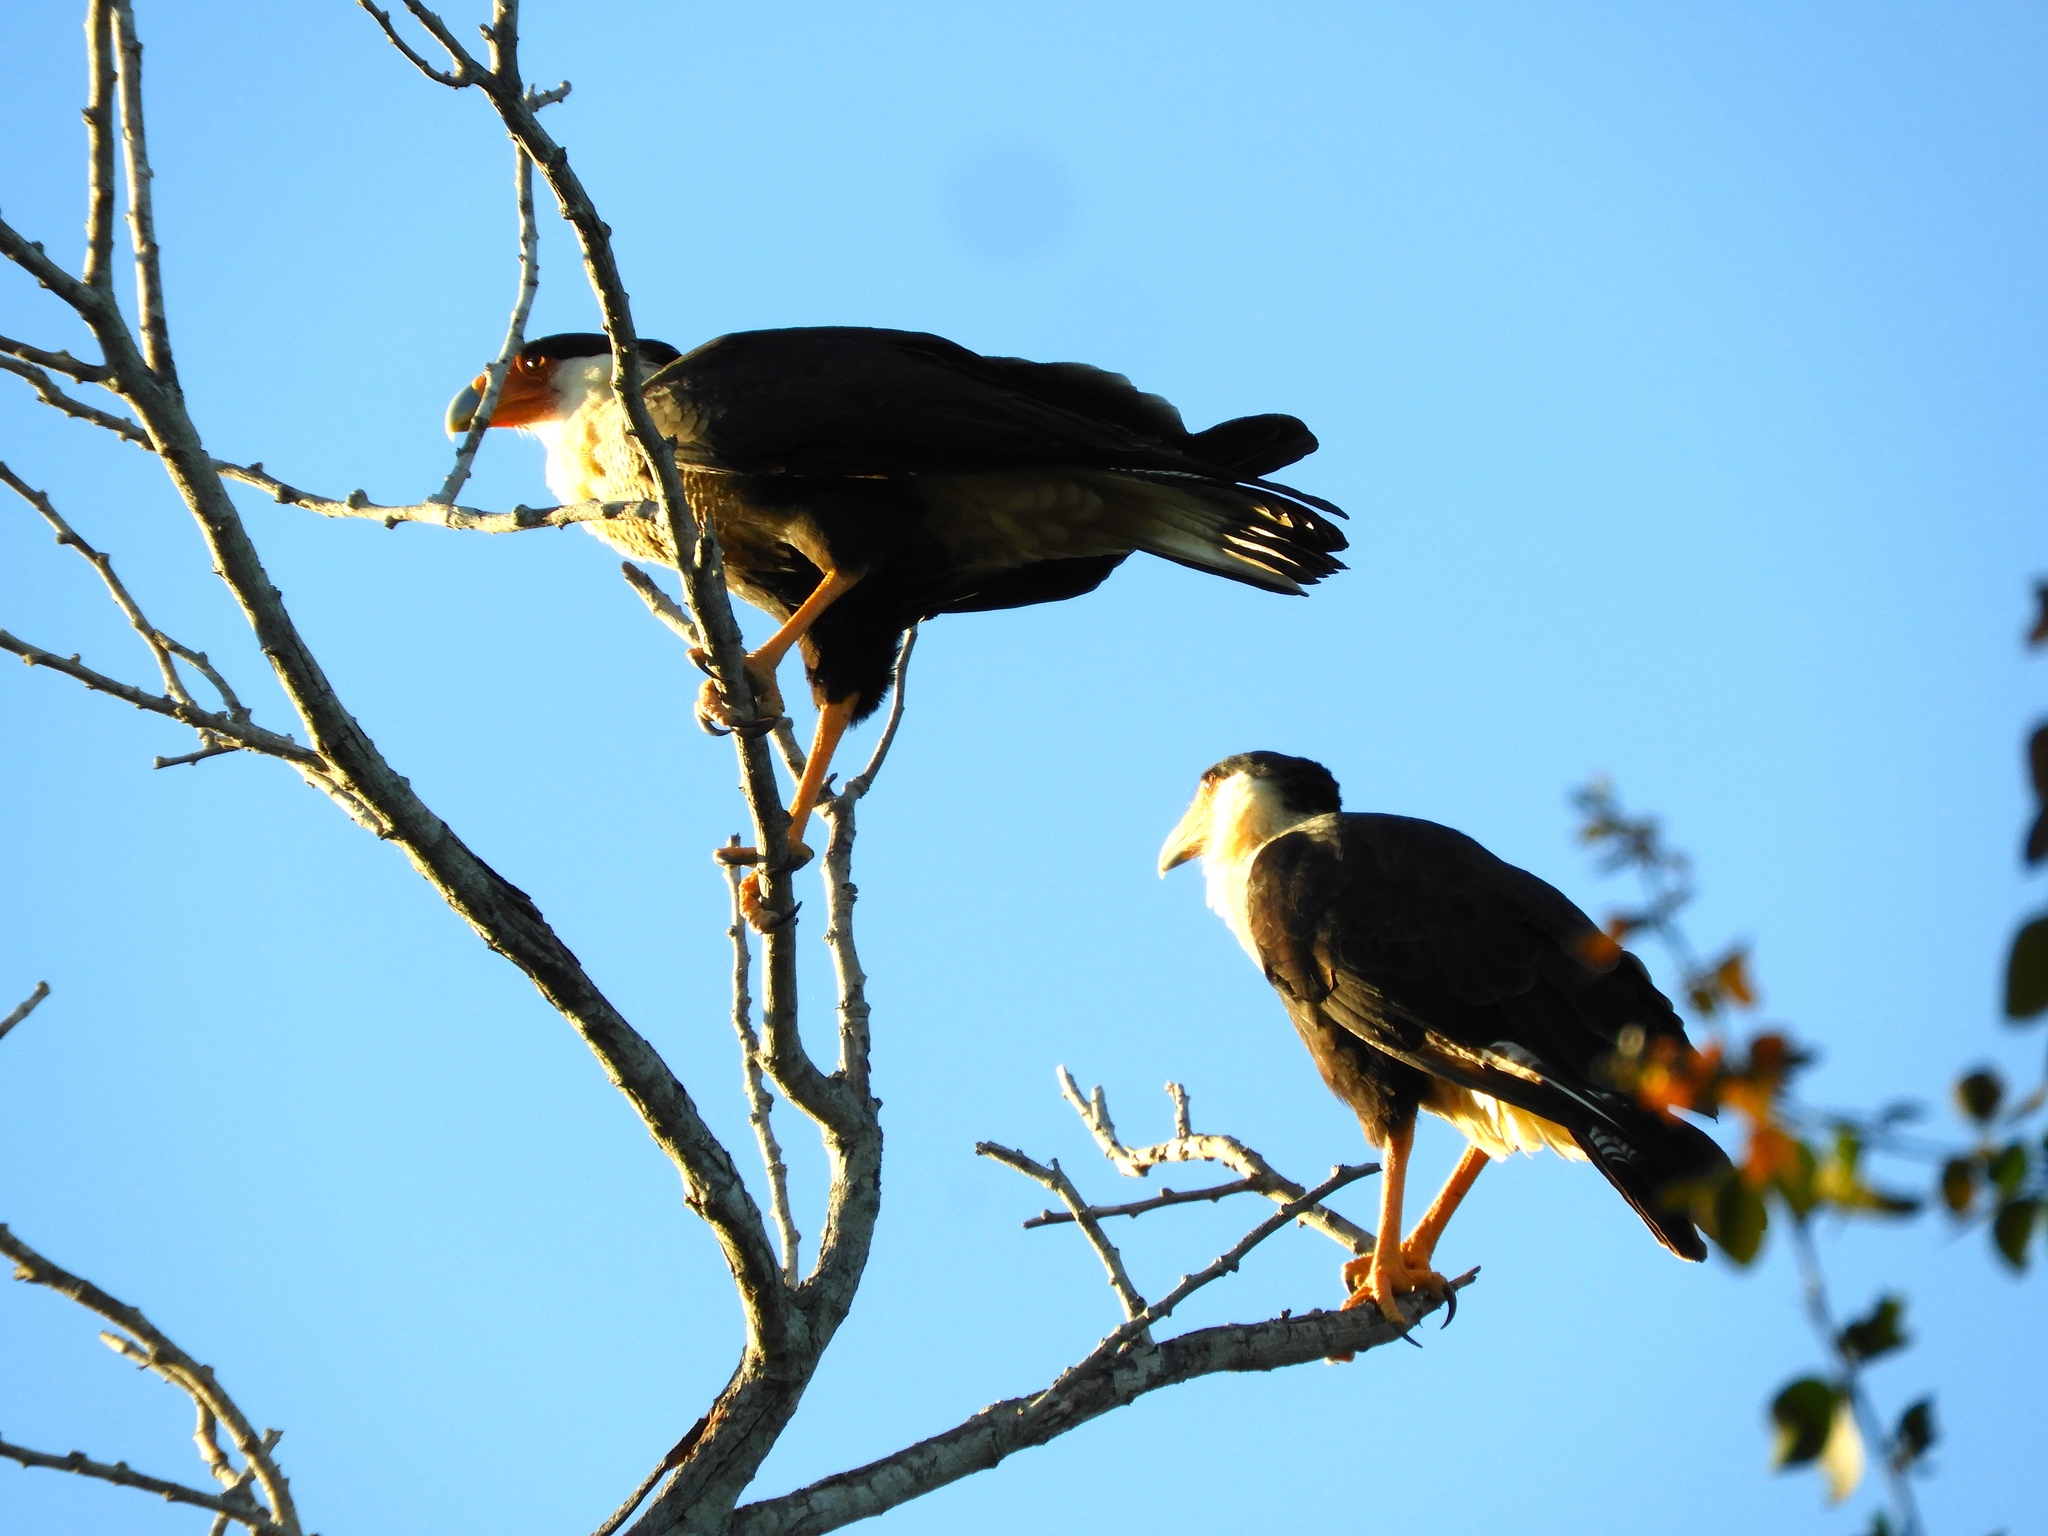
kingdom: Animalia
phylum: Chordata
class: Aves
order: Falconiformes
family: Falconidae
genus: Caracara
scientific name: Caracara plancus
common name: Southern caracara
